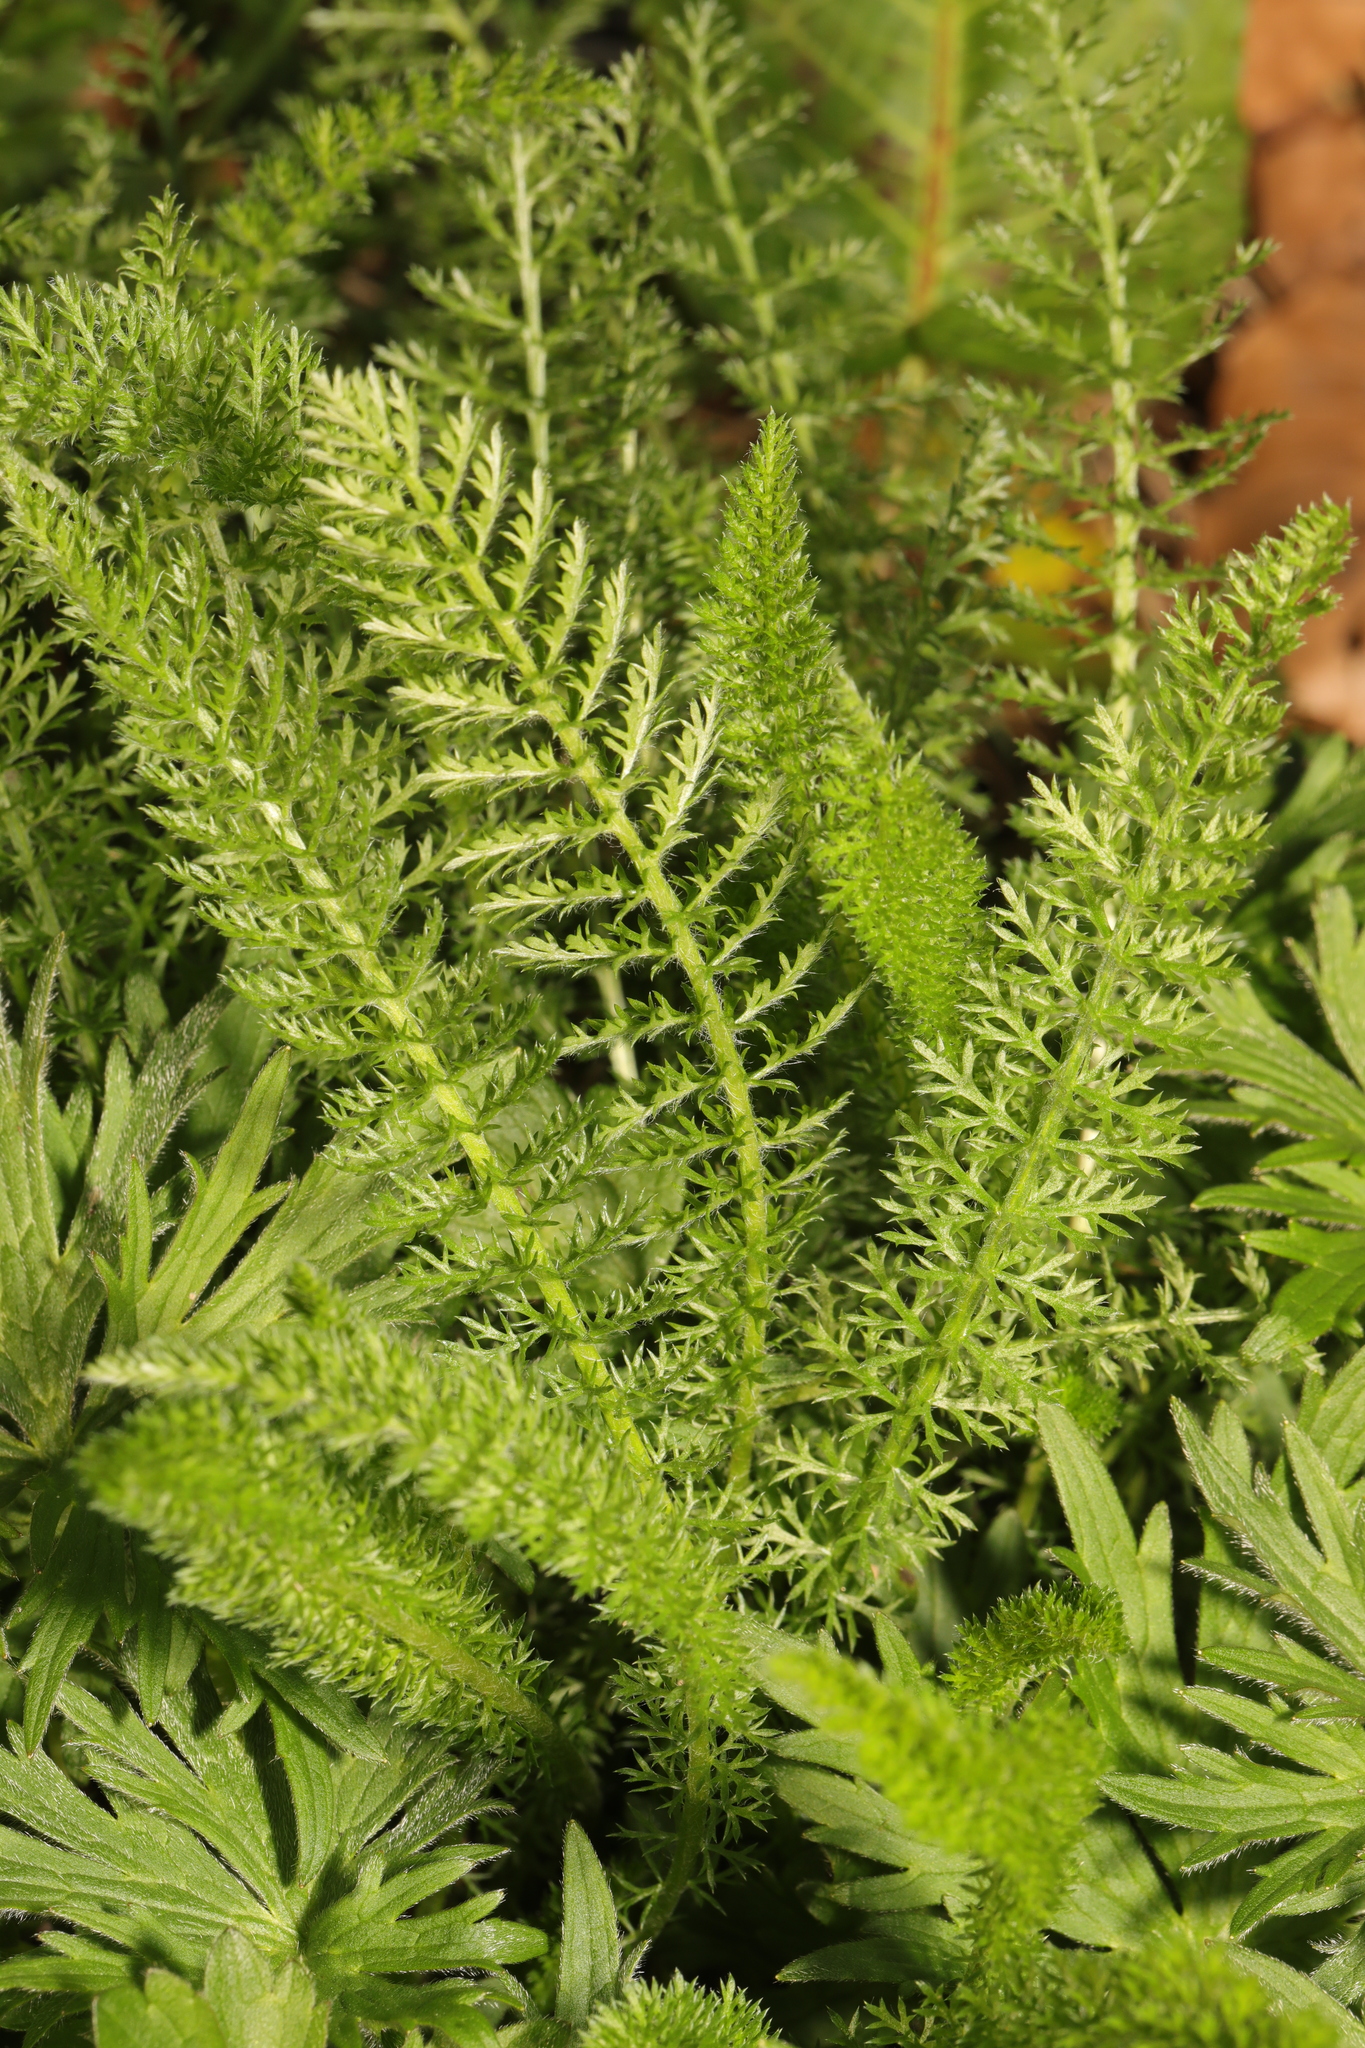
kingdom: Plantae
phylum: Tracheophyta
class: Magnoliopsida
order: Asterales
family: Asteraceae
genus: Achillea
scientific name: Achillea millefolium
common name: Yarrow
